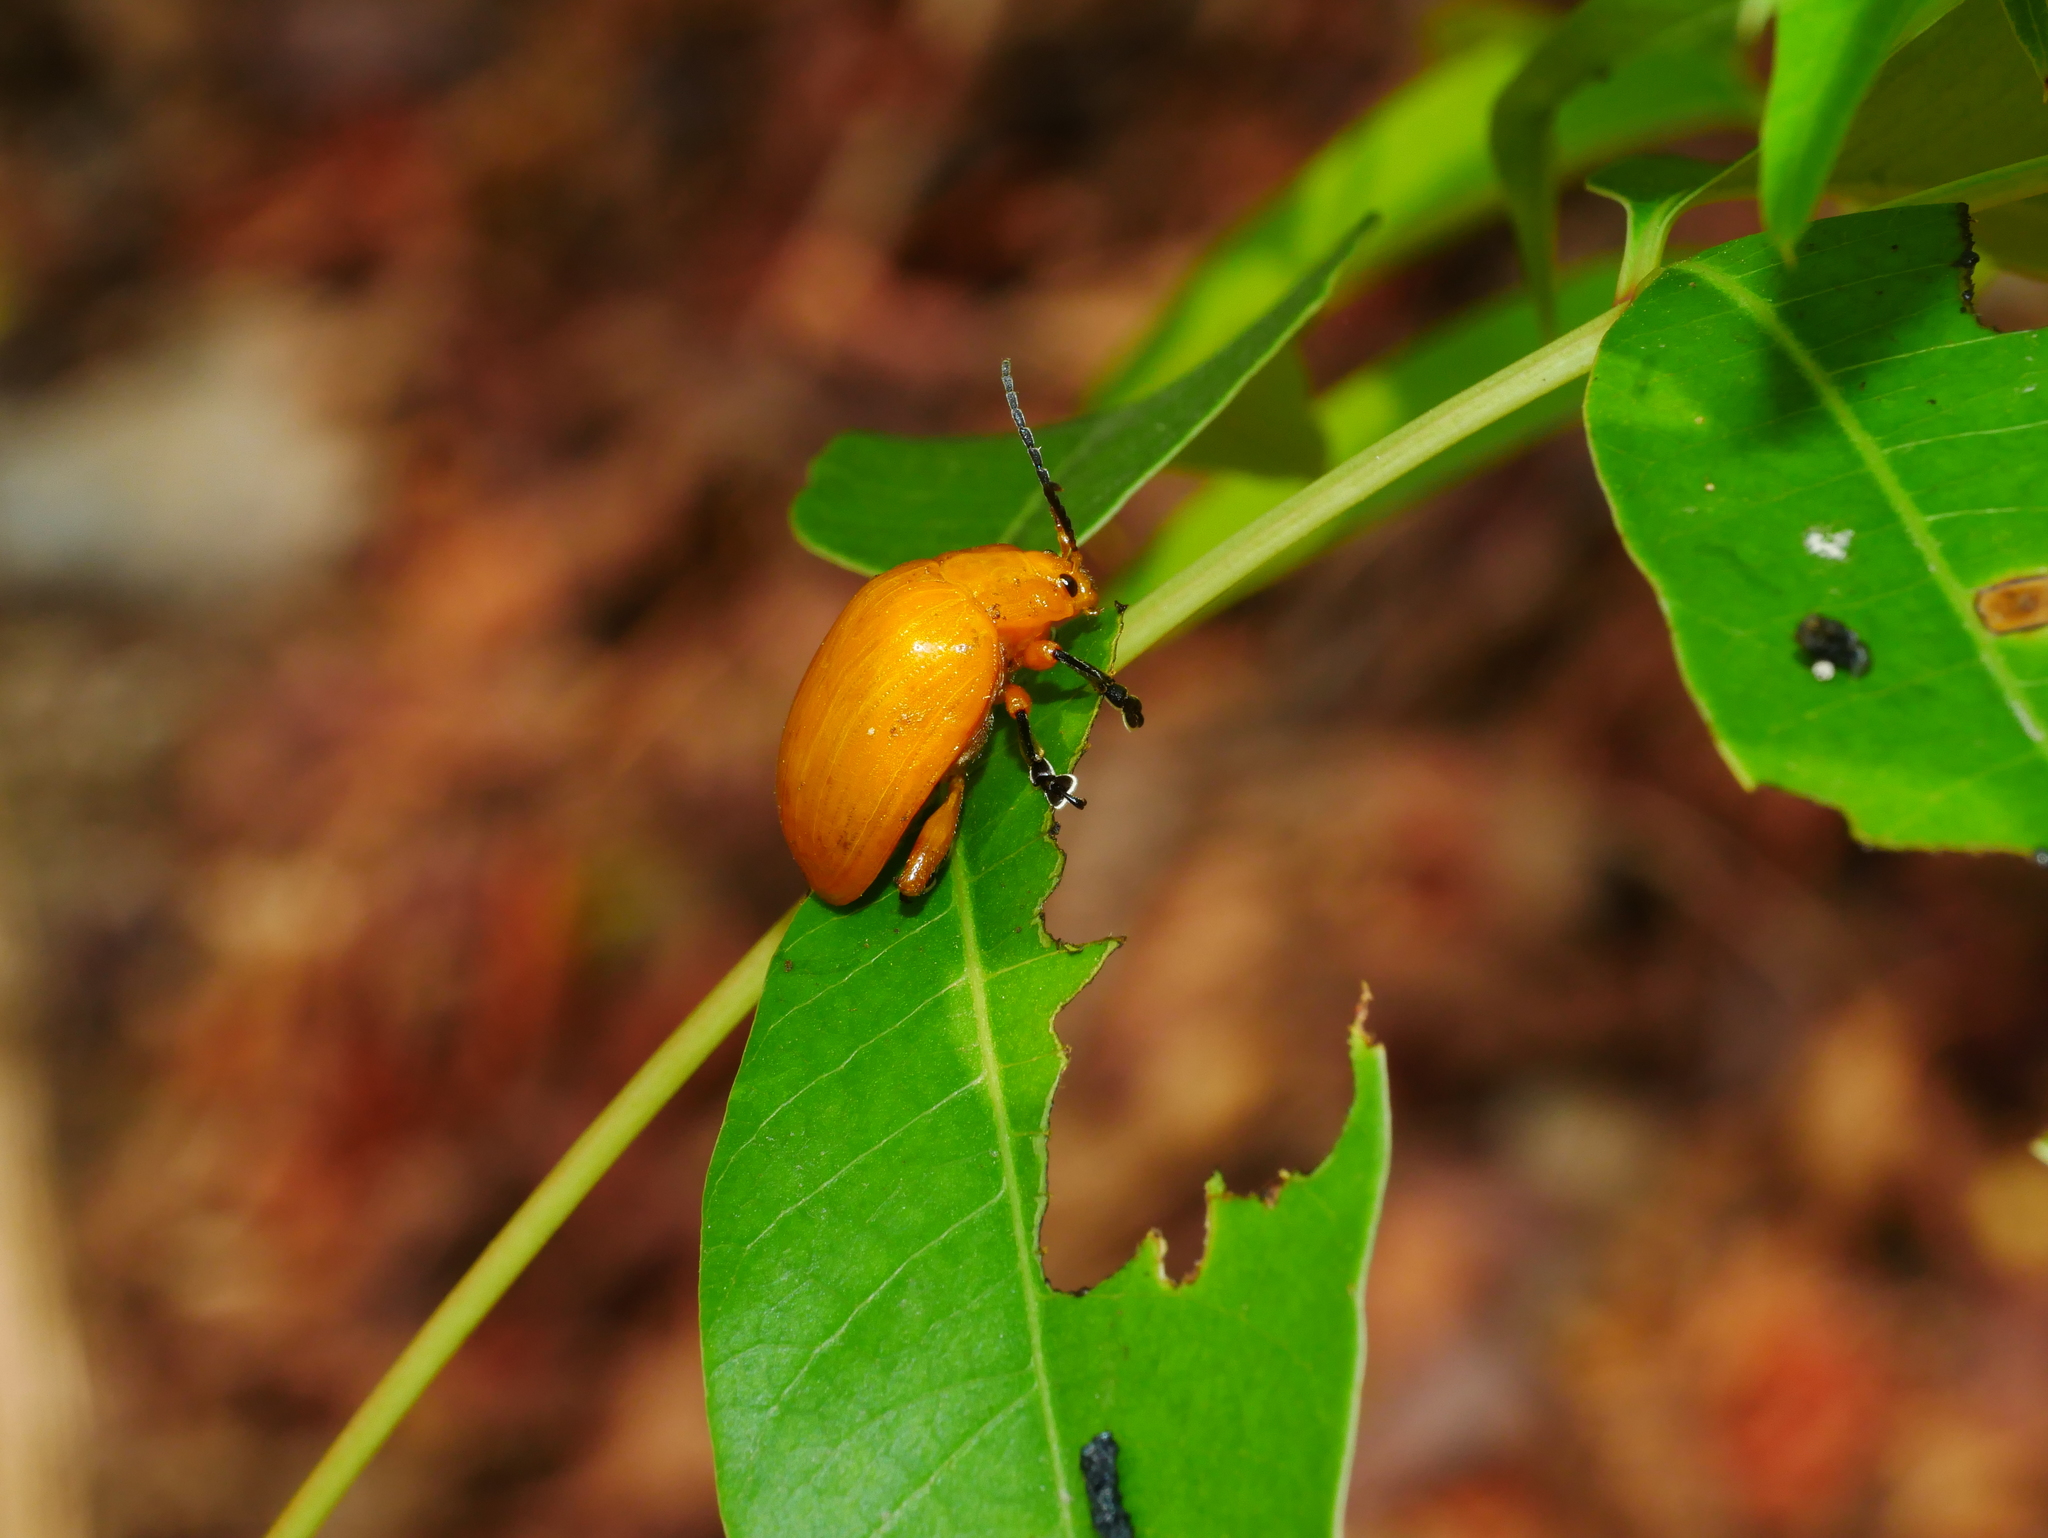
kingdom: Animalia
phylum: Arthropoda
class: Insecta
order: Coleoptera
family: Chrysomelidae
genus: Podontia
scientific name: Podontia lutea
